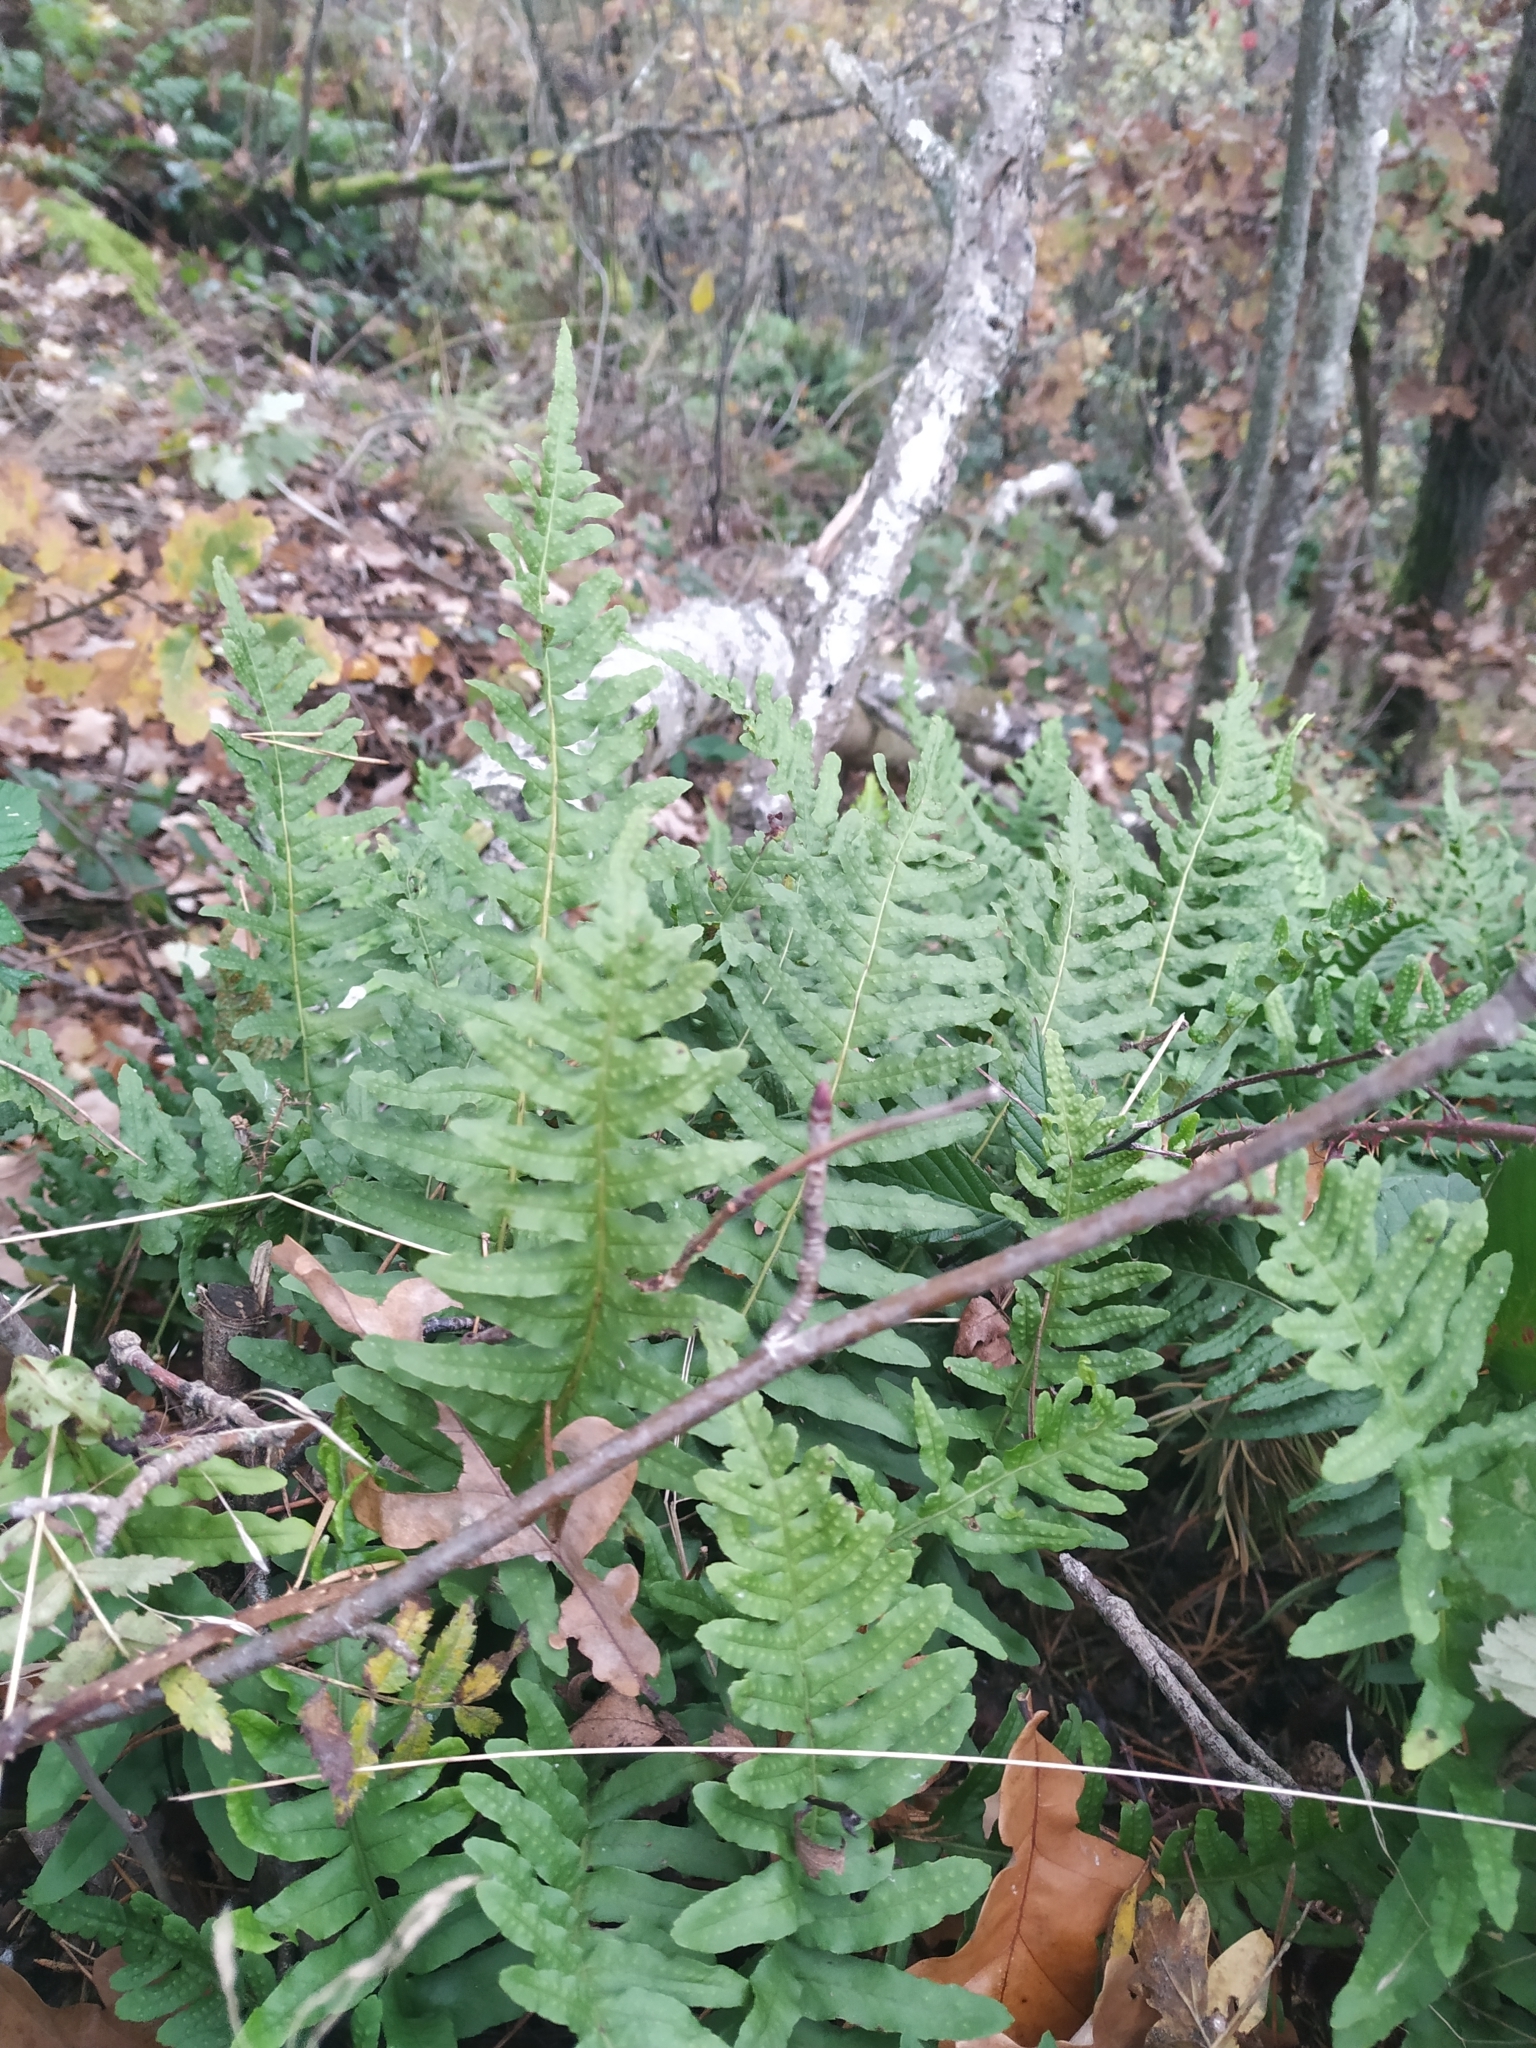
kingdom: Plantae
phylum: Tracheophyta
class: Polypodiopsida
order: Polypodiales
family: Polypodiaceae
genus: Polypodium
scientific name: Polypodium vulgare
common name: Common polypody
